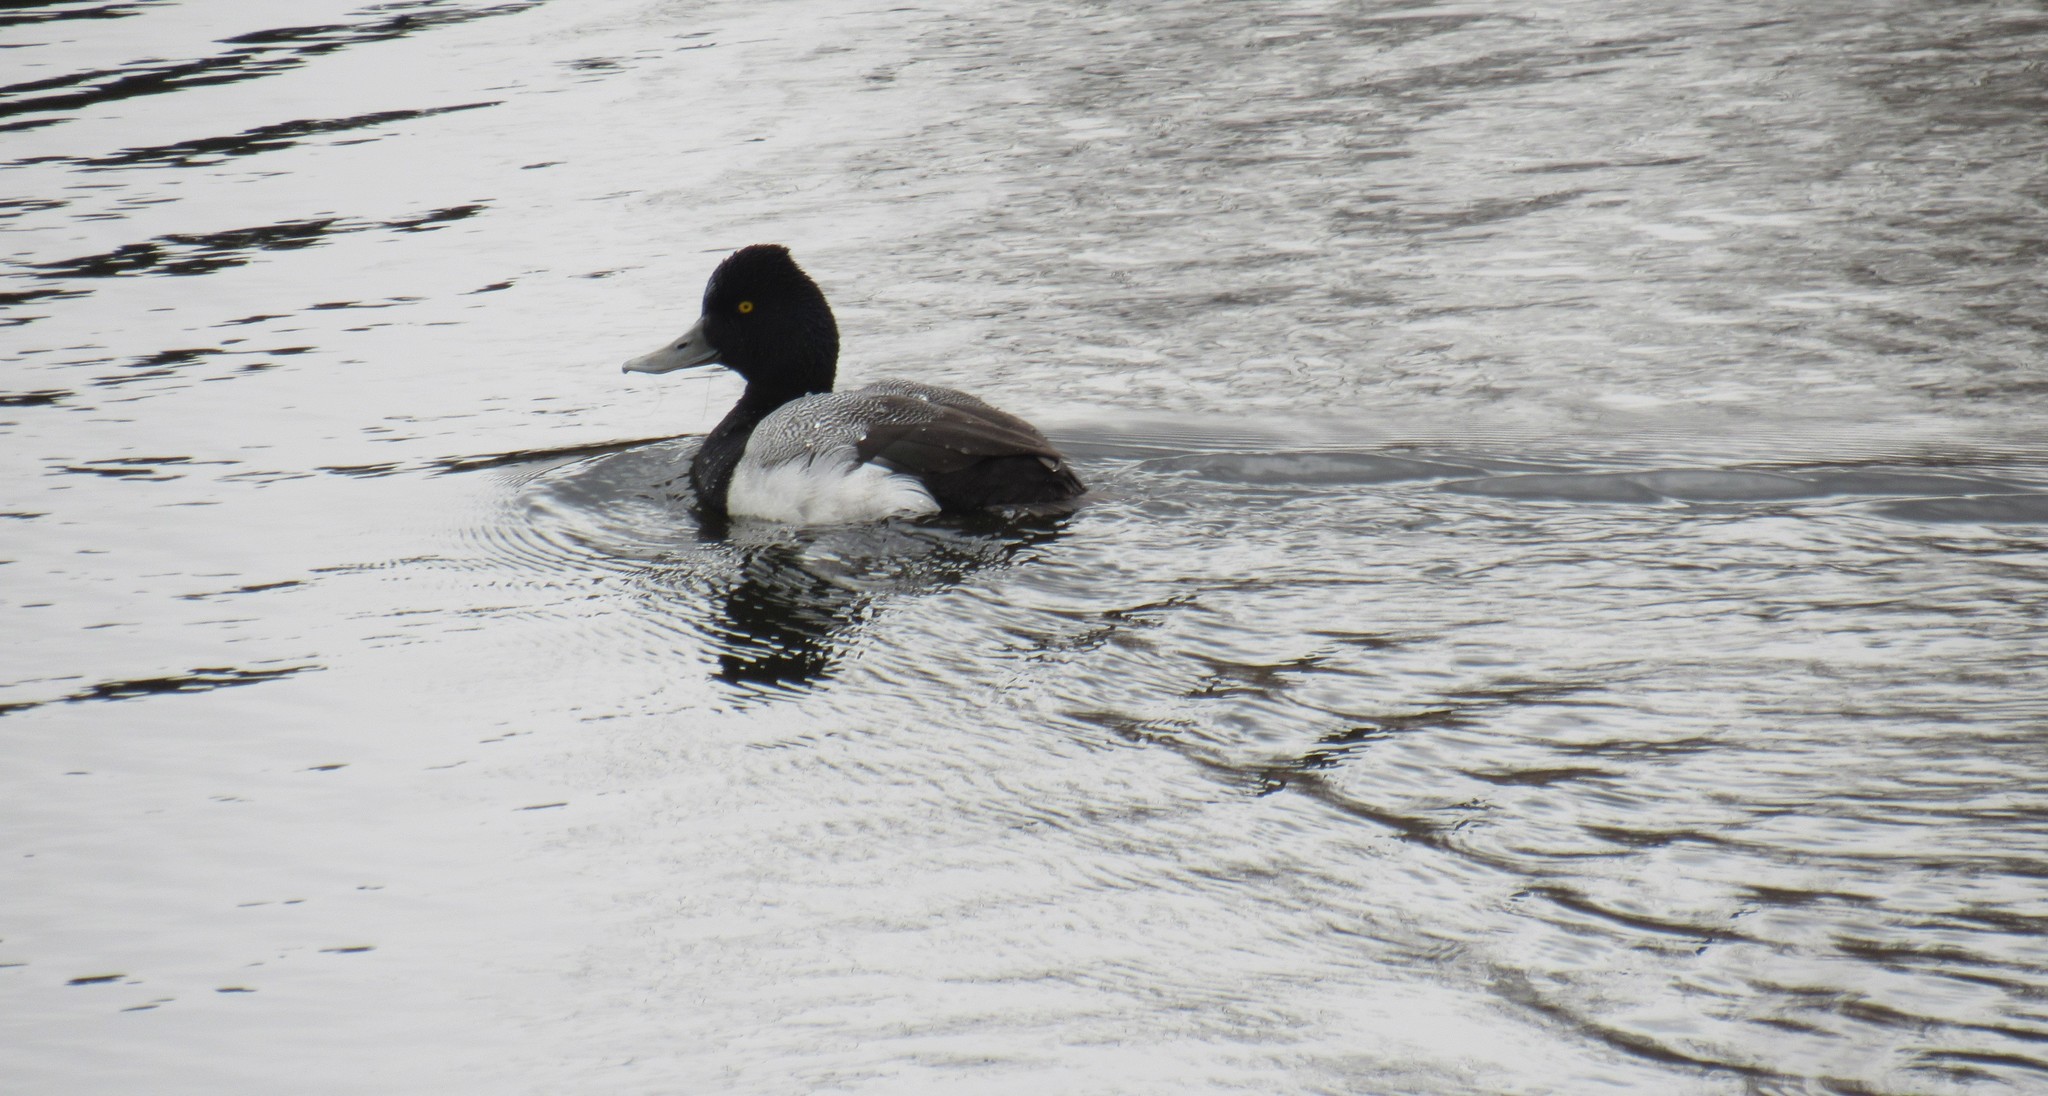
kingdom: Animalia
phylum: Chordata
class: Aves
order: Anseriformes
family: Anatidae
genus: Aythya
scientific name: Aythya affinis
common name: Lesser scaup
